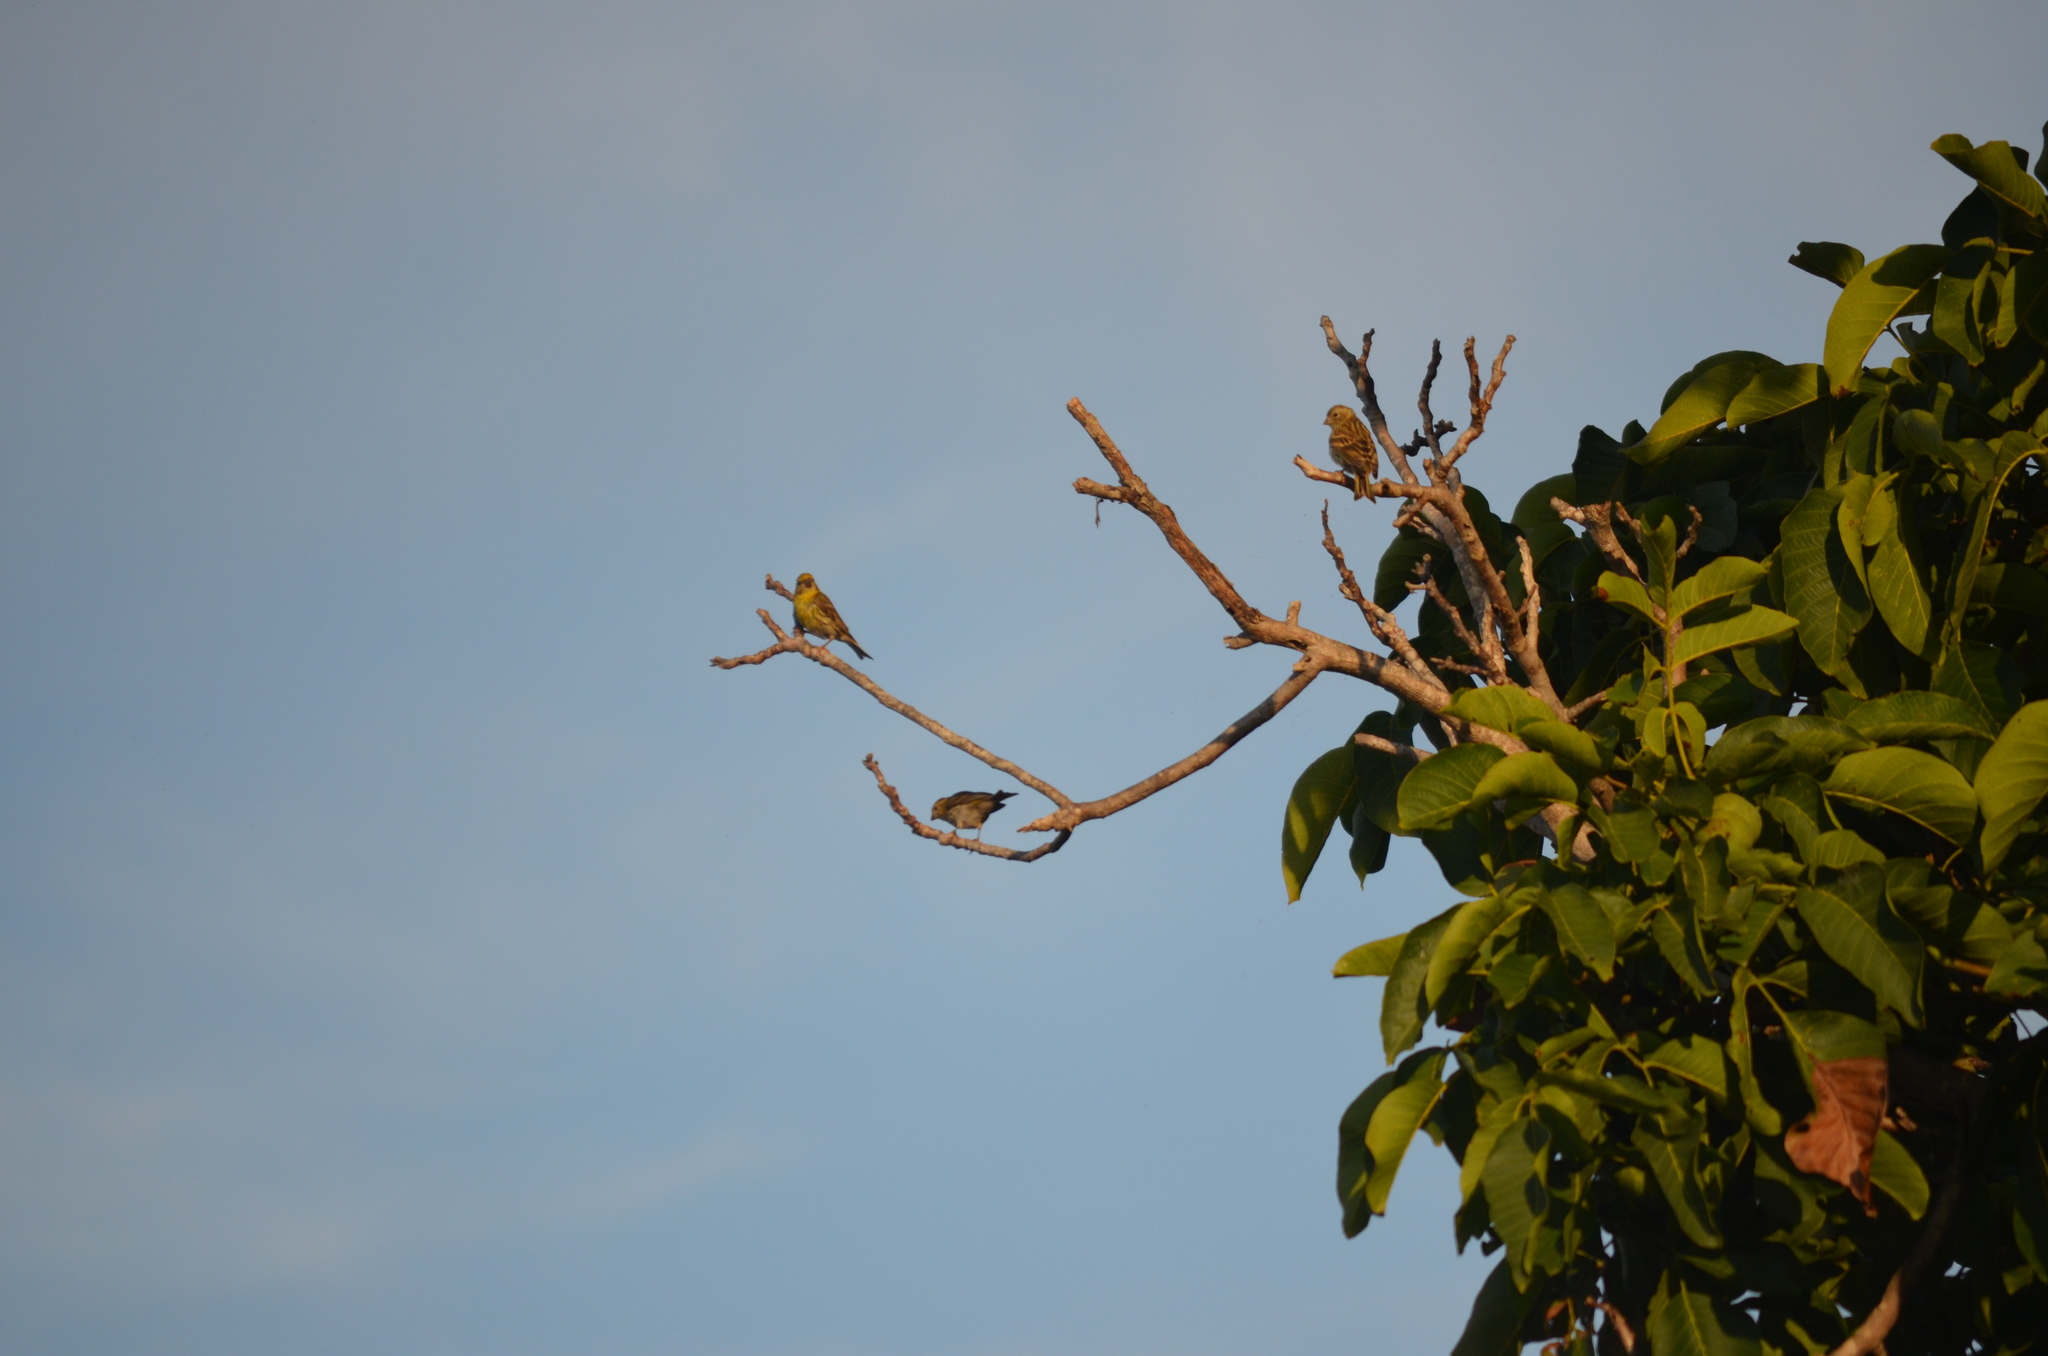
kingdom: Animalia
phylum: Chordata
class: Aves
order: Passeriformes
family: Fringillidae
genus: Serinus
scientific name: Serinus serinus
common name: European serin
